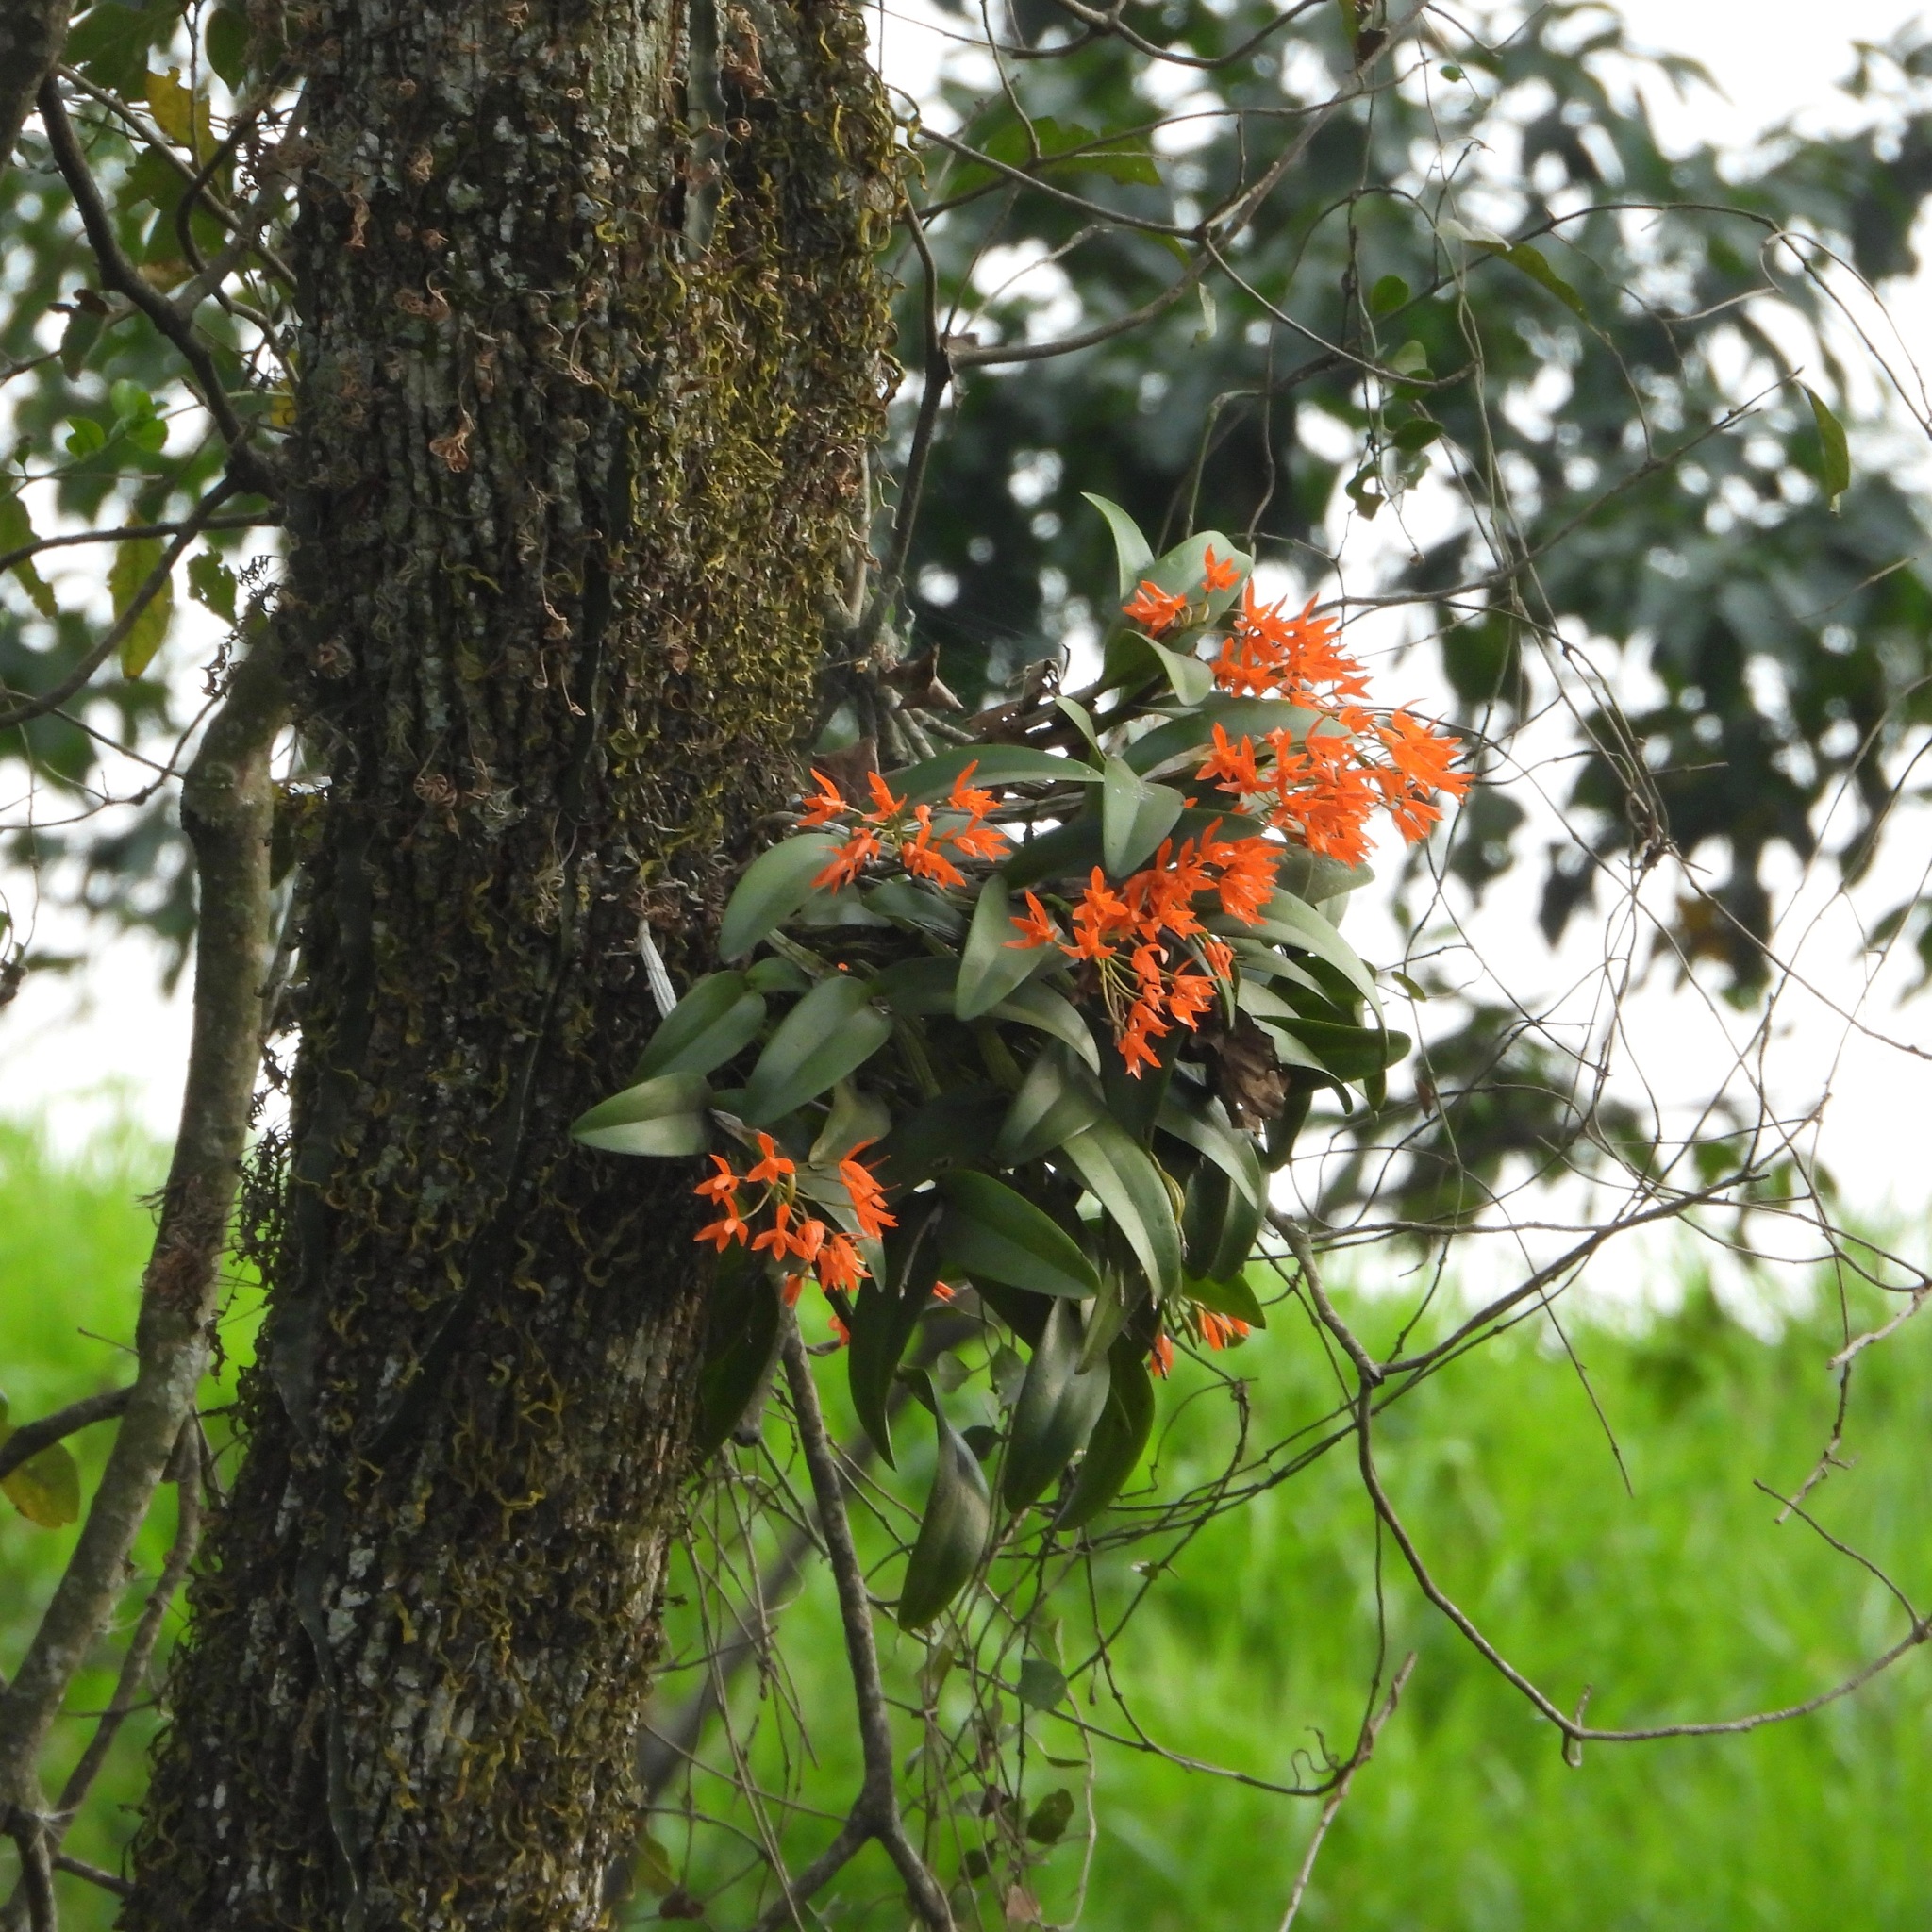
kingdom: Plantae
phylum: Tracheophyta
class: Liliopsida
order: Asparagales
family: Orchidaceae
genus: Guarianthe
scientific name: Guarianthe aurantiaca
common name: Orange cattleya
